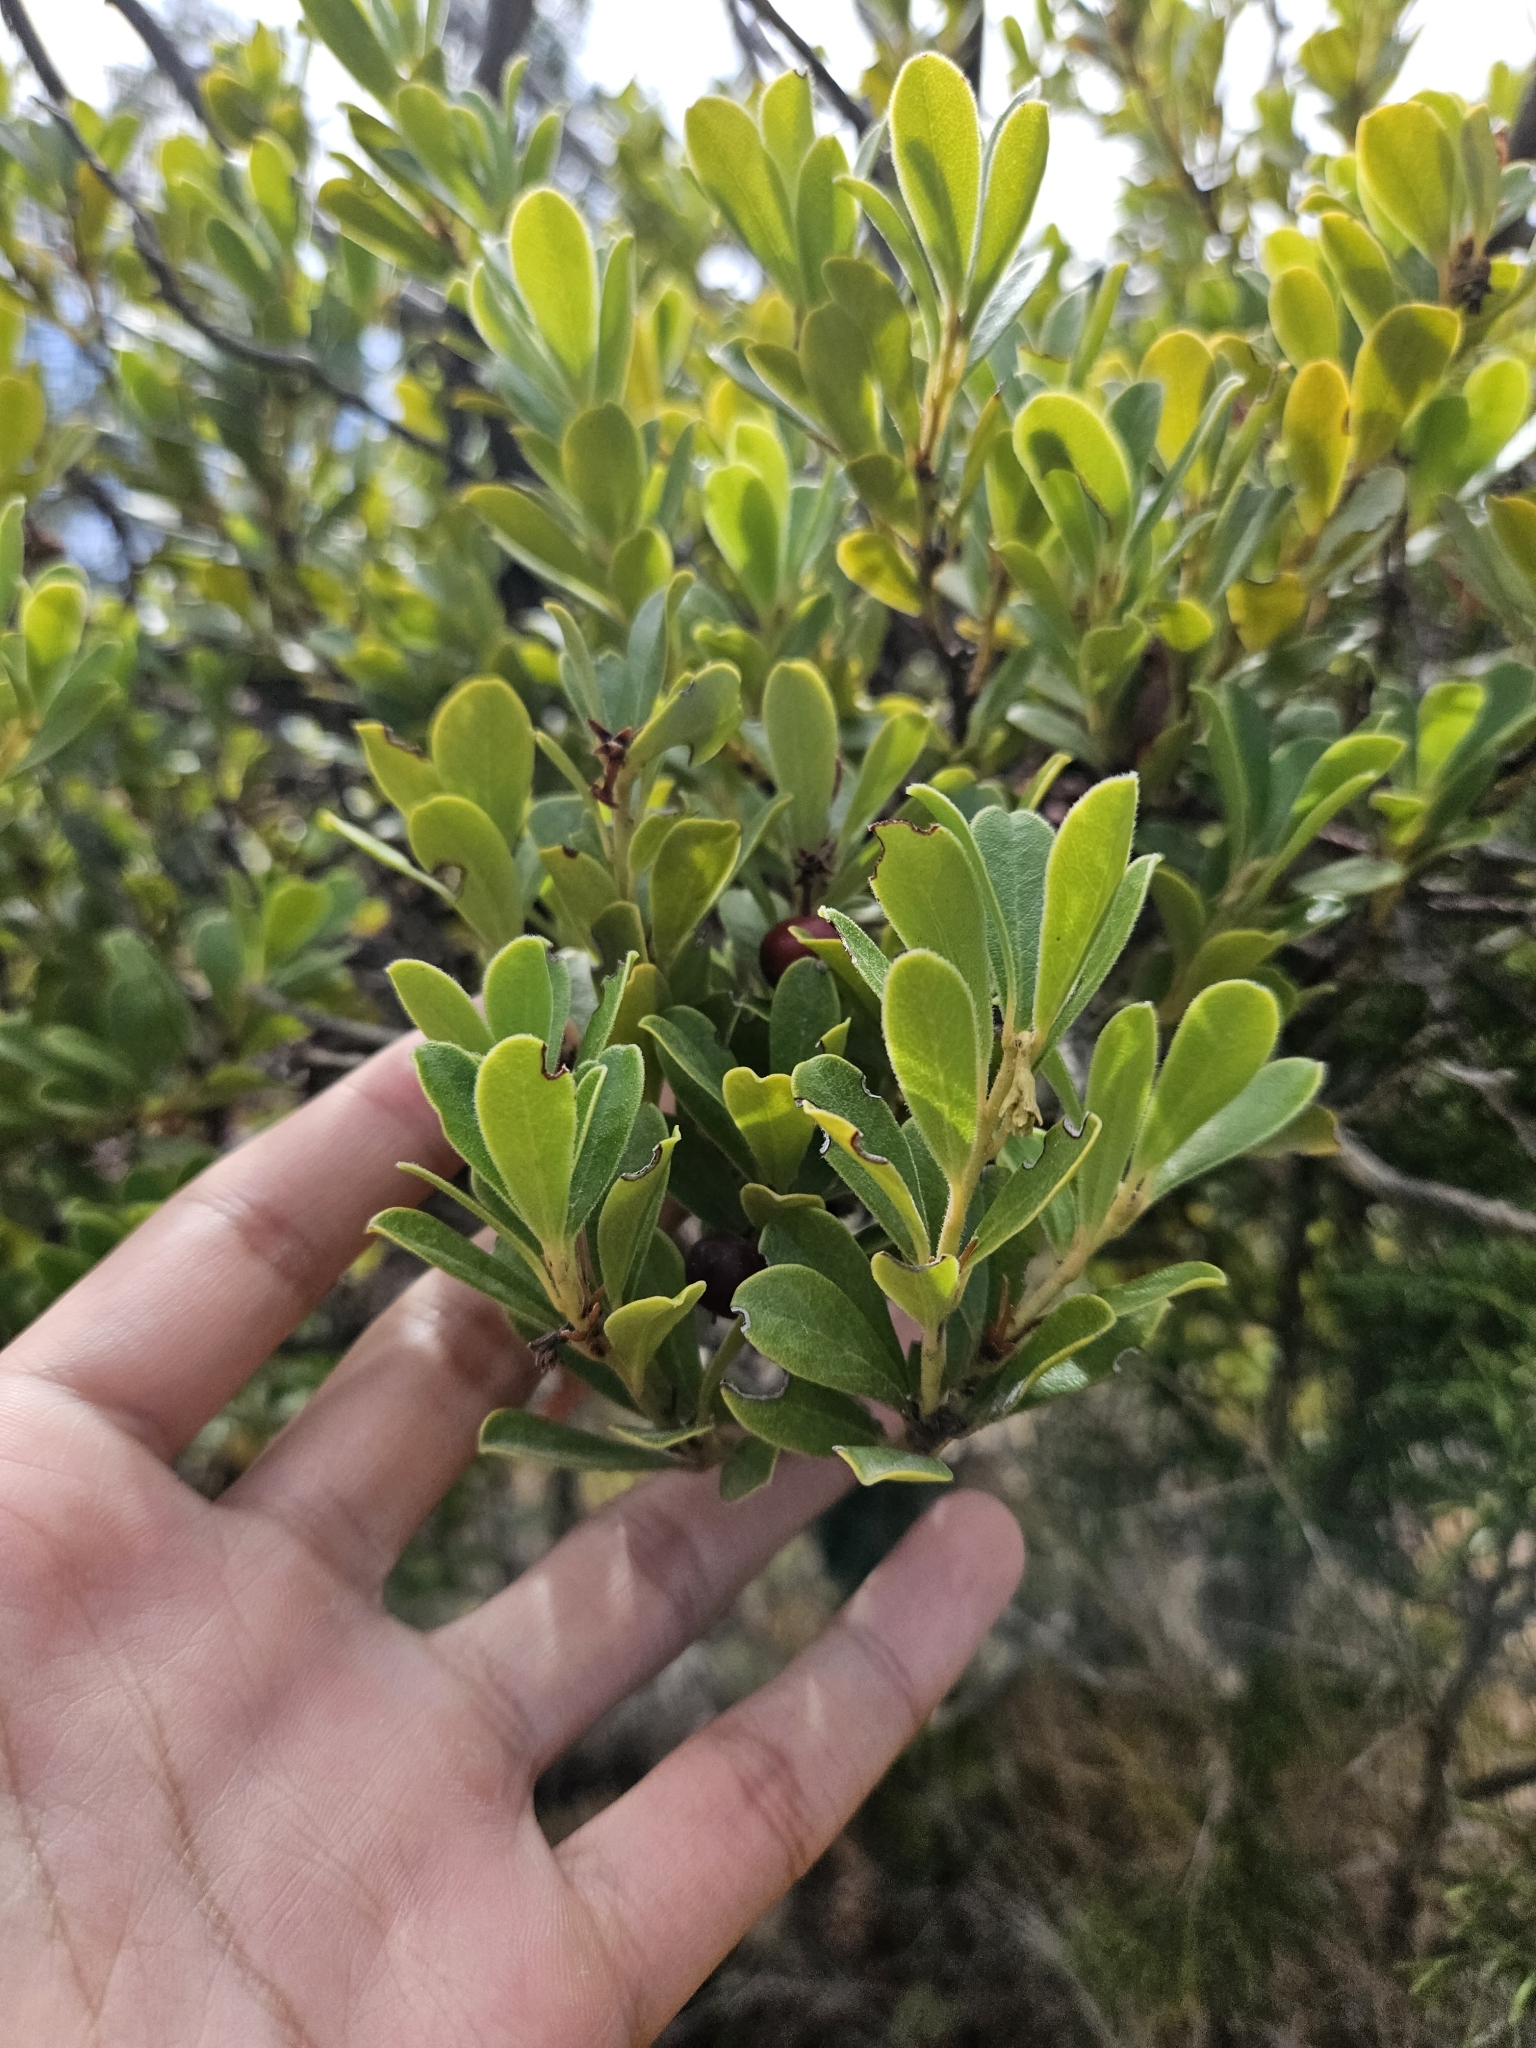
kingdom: Plantae
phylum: Tracheophyta
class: Magnoliopsida
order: Ericales
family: Ericaceae
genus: Arctostaphylos
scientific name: Arctostaphylos uva-ursi
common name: Bearberry
